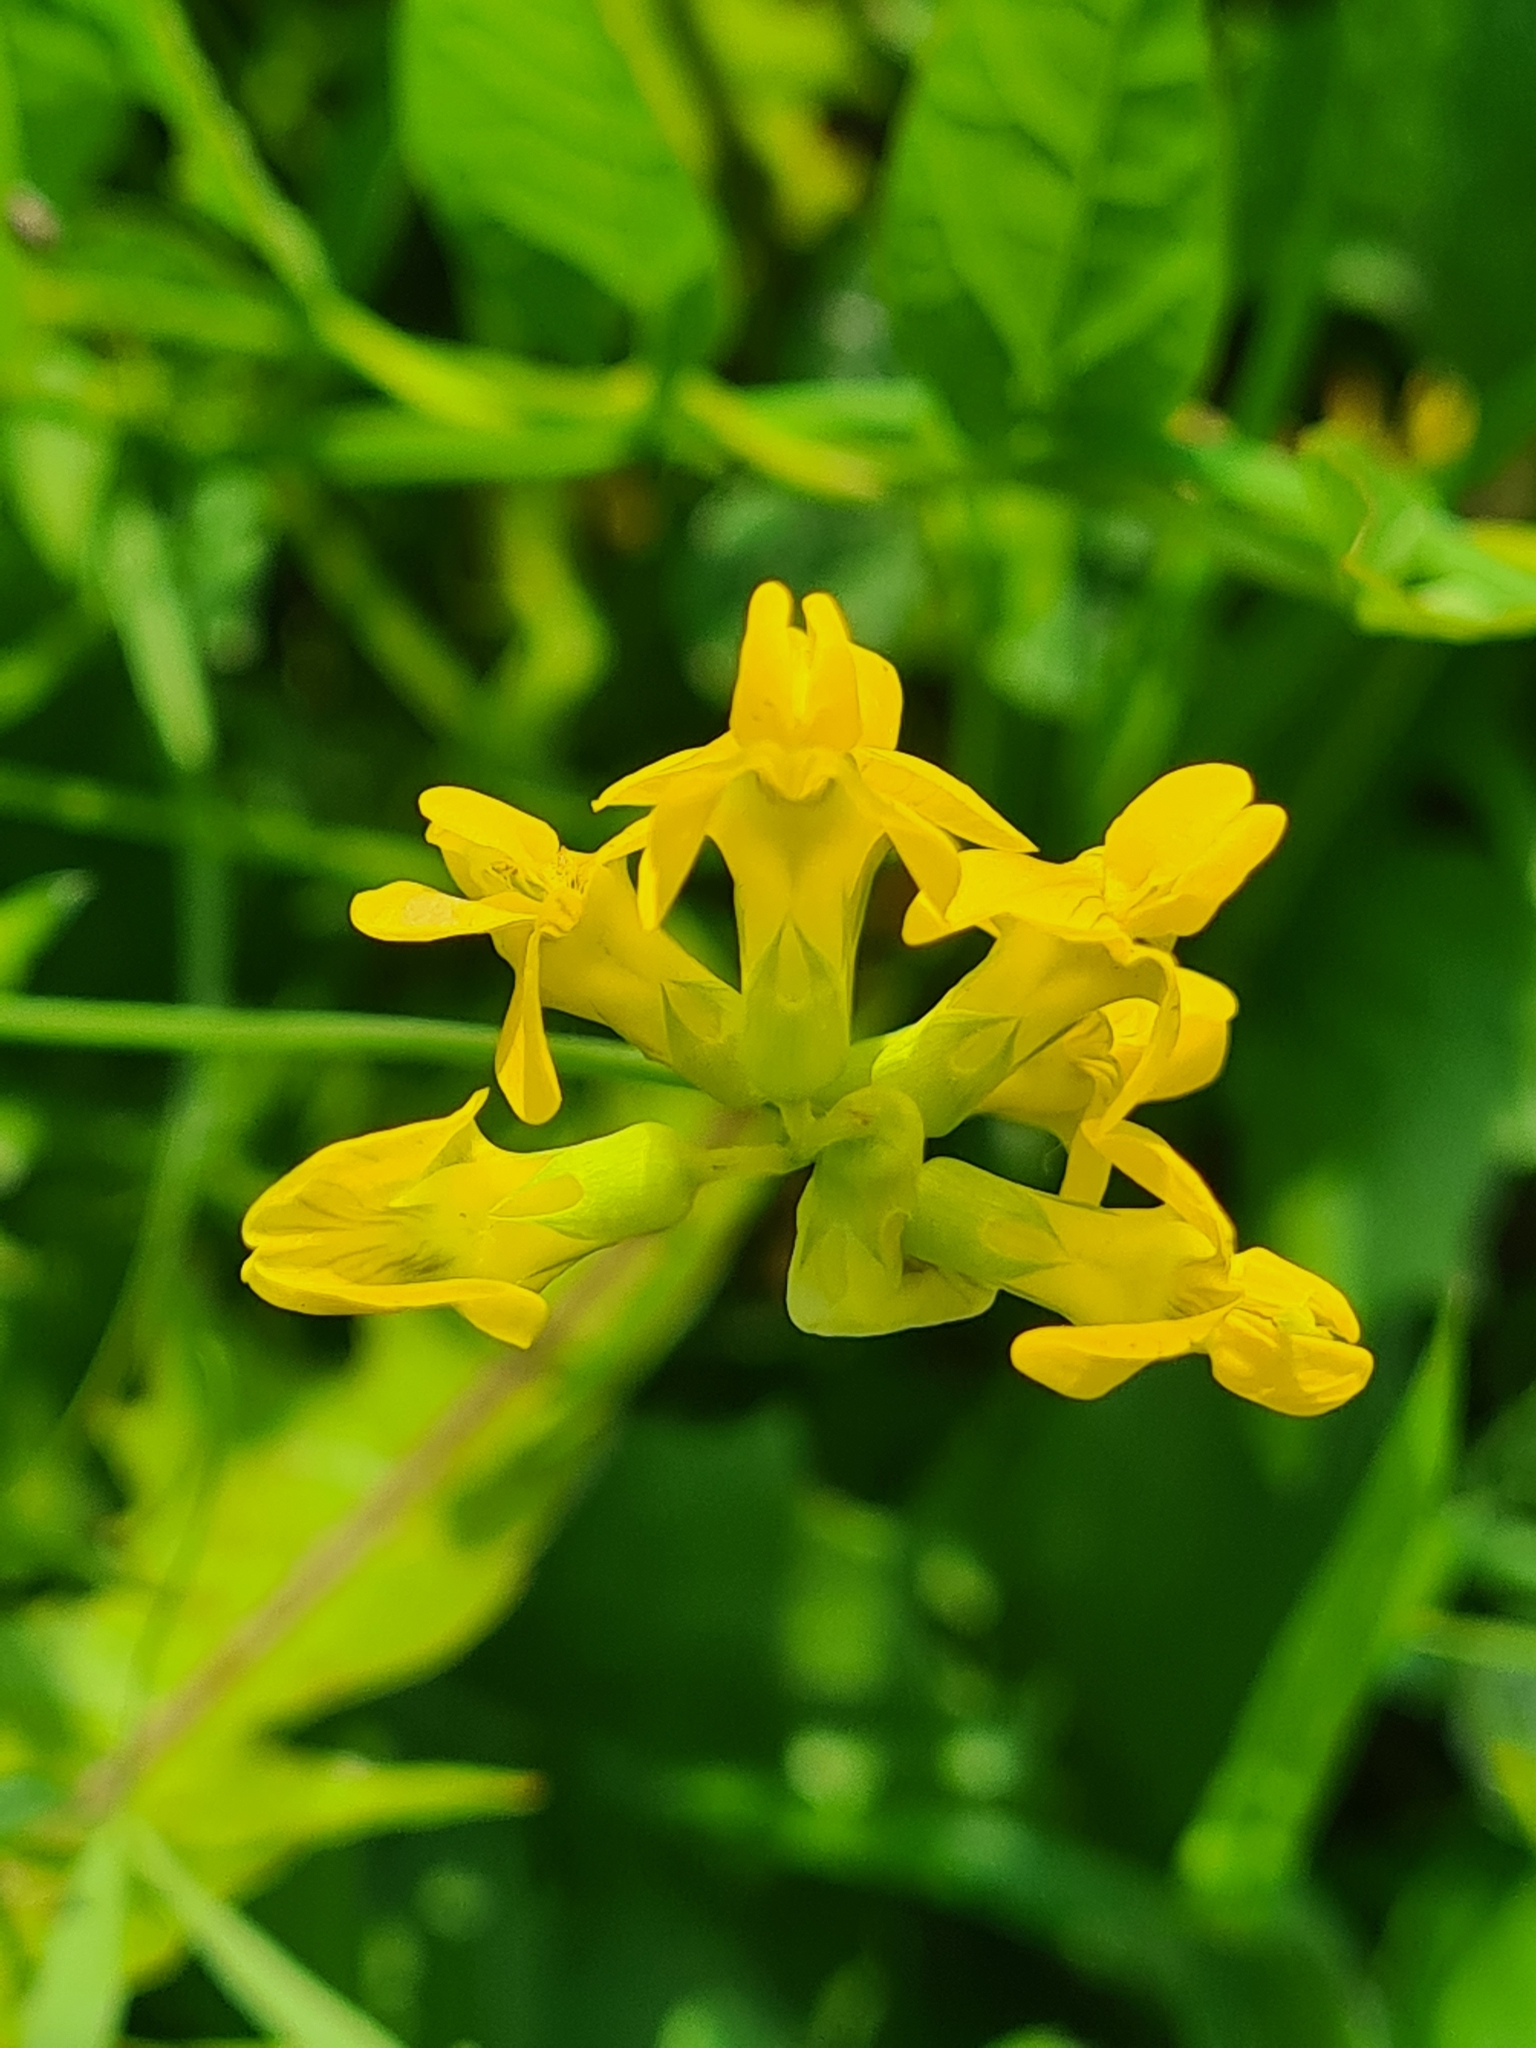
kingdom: Plantae
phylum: Tracheophyta
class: Magnoliopsida
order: Fabales
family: Fabaceae
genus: Lathyrus
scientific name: Lathyrus pratensis
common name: Meadow vetchling
